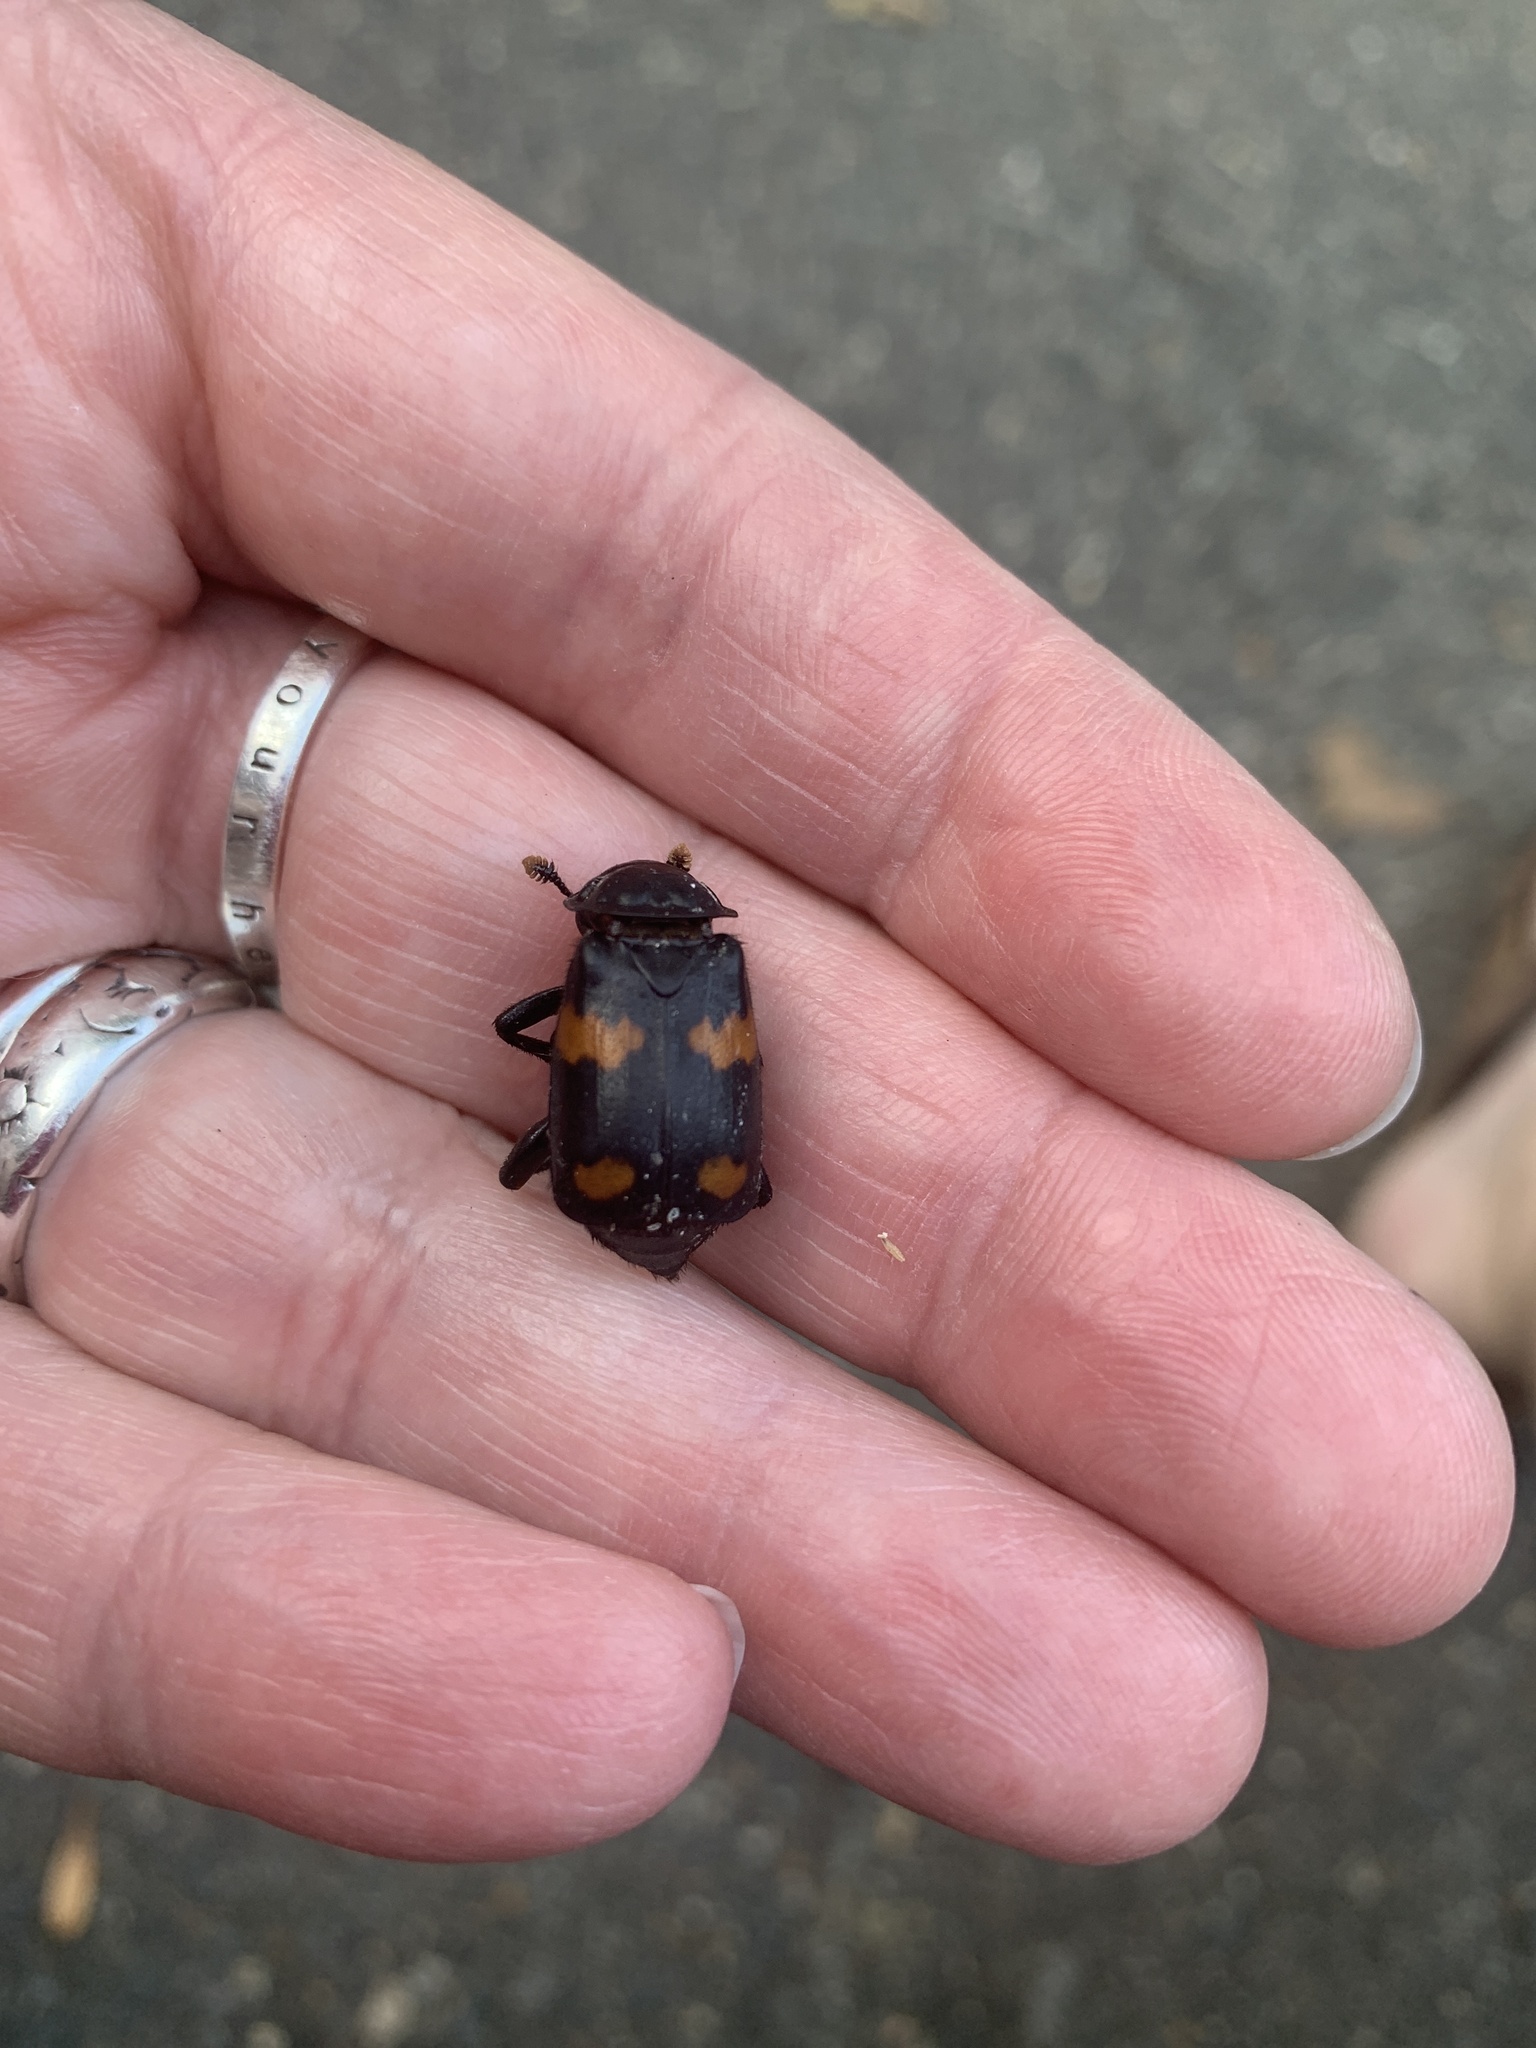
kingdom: Animalia
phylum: Arthropoda
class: Insecta
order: Coleoptera
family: Staphylinidae
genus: Nicrophorus
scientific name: Nicrophorus orbicollis
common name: Roundneck sexton beetle
